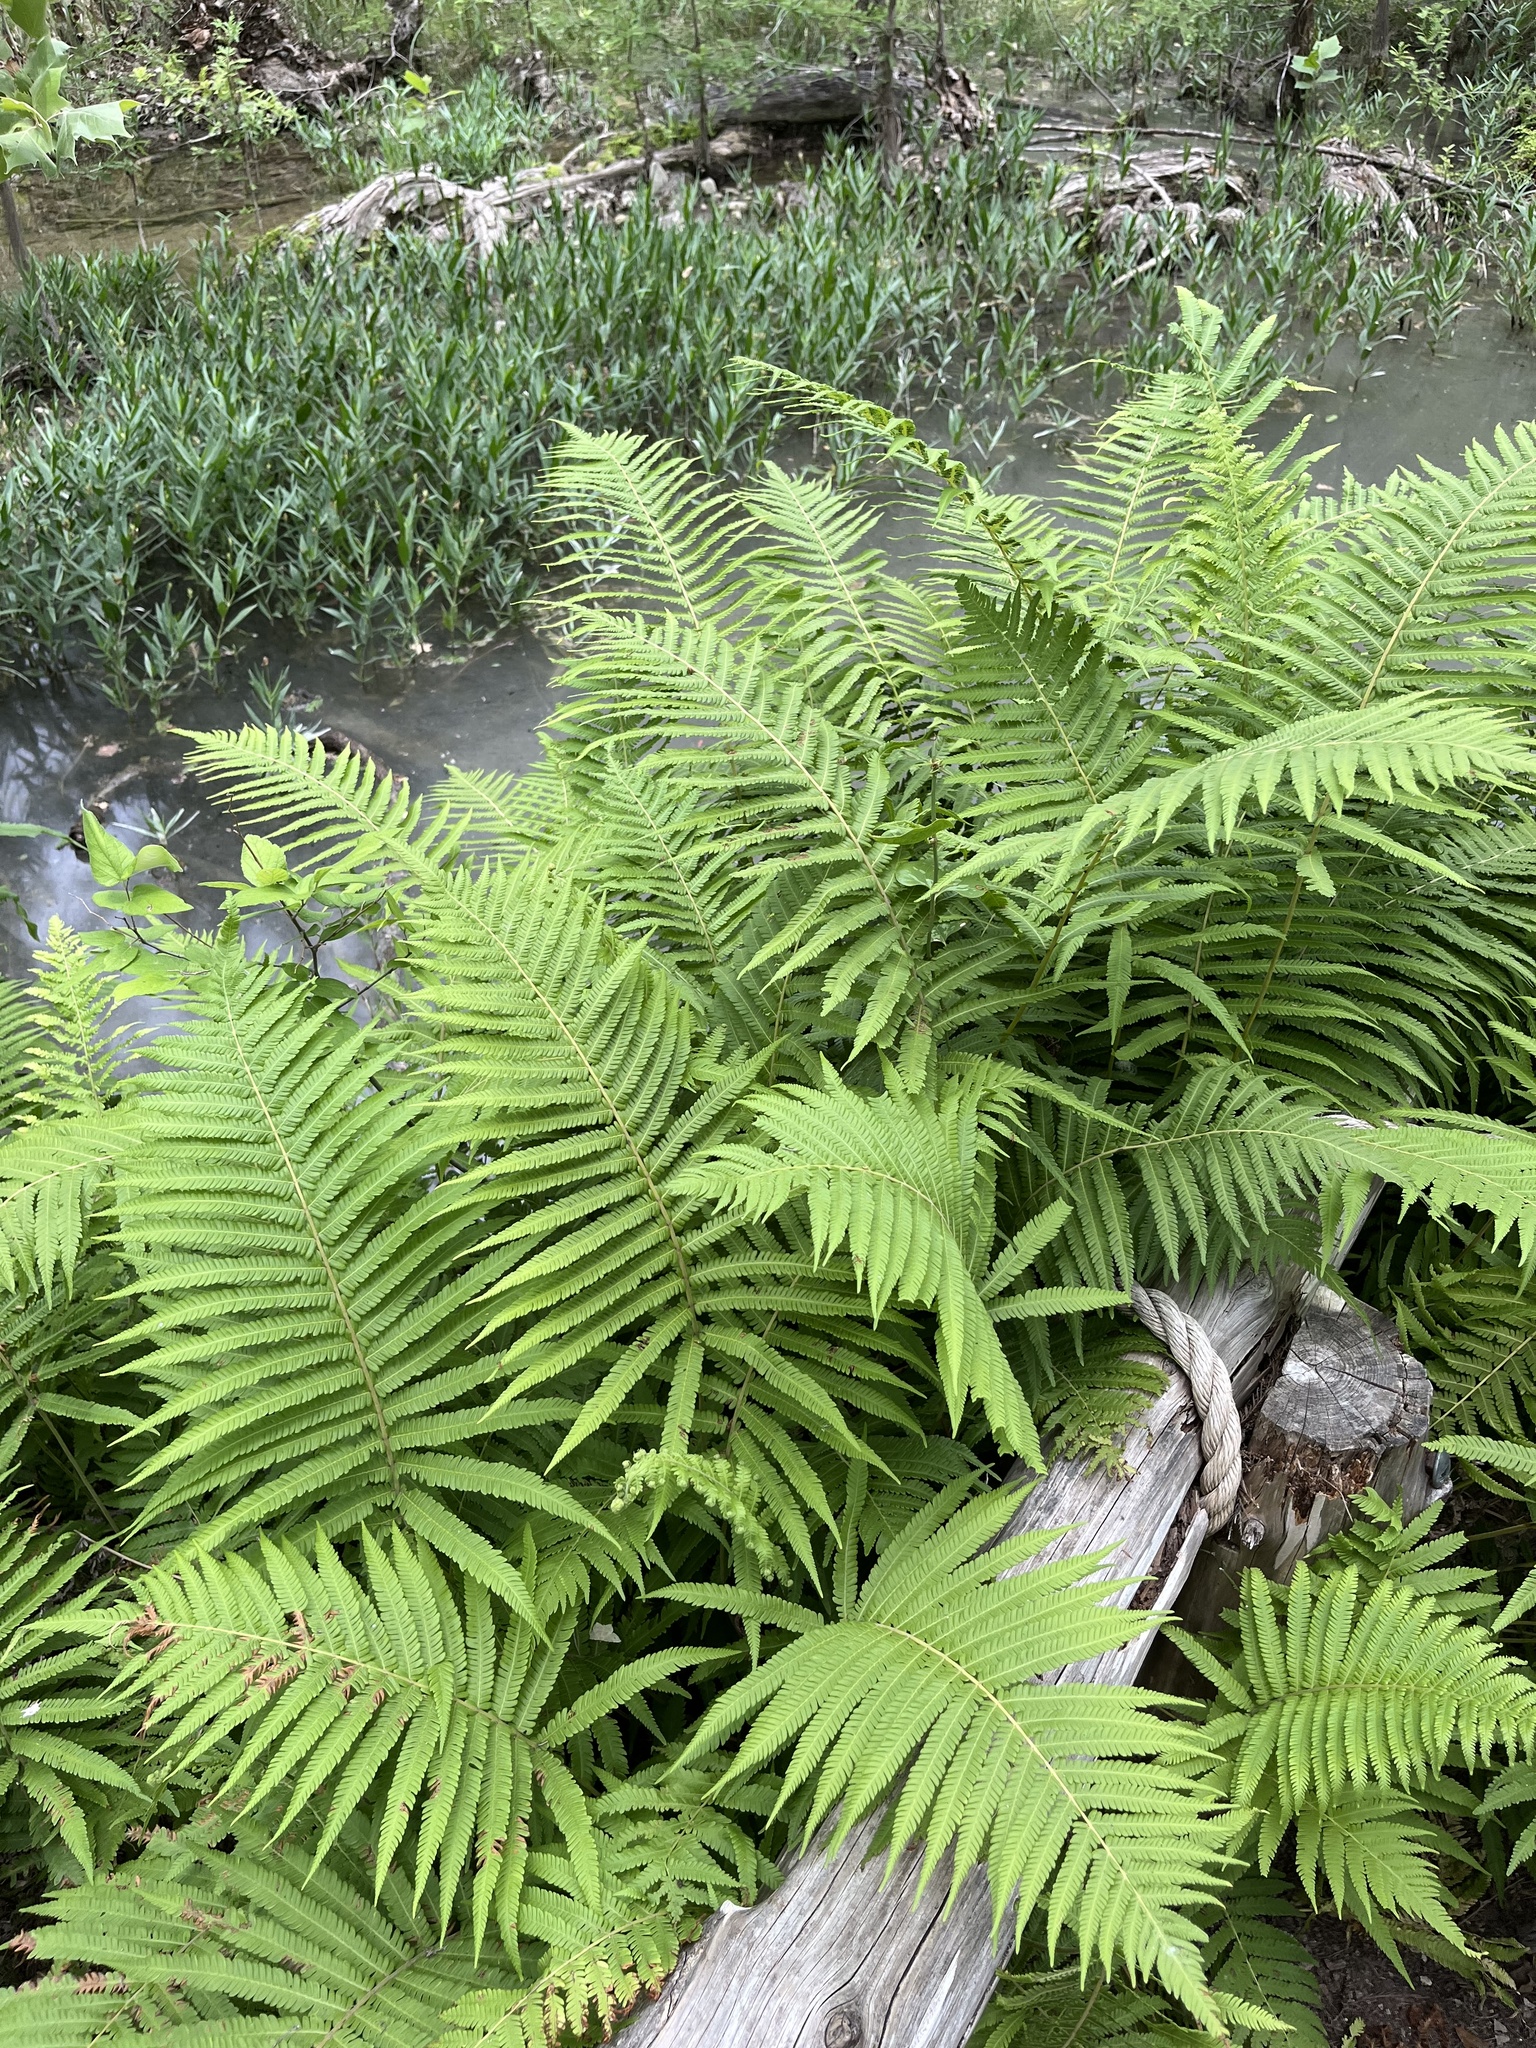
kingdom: Plantae
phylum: Tracheophyta
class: Polypodiopsida
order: Polypodiales
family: Thelypteridaceae
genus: Pelazoneuron
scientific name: Pelazoneuron ovatum
